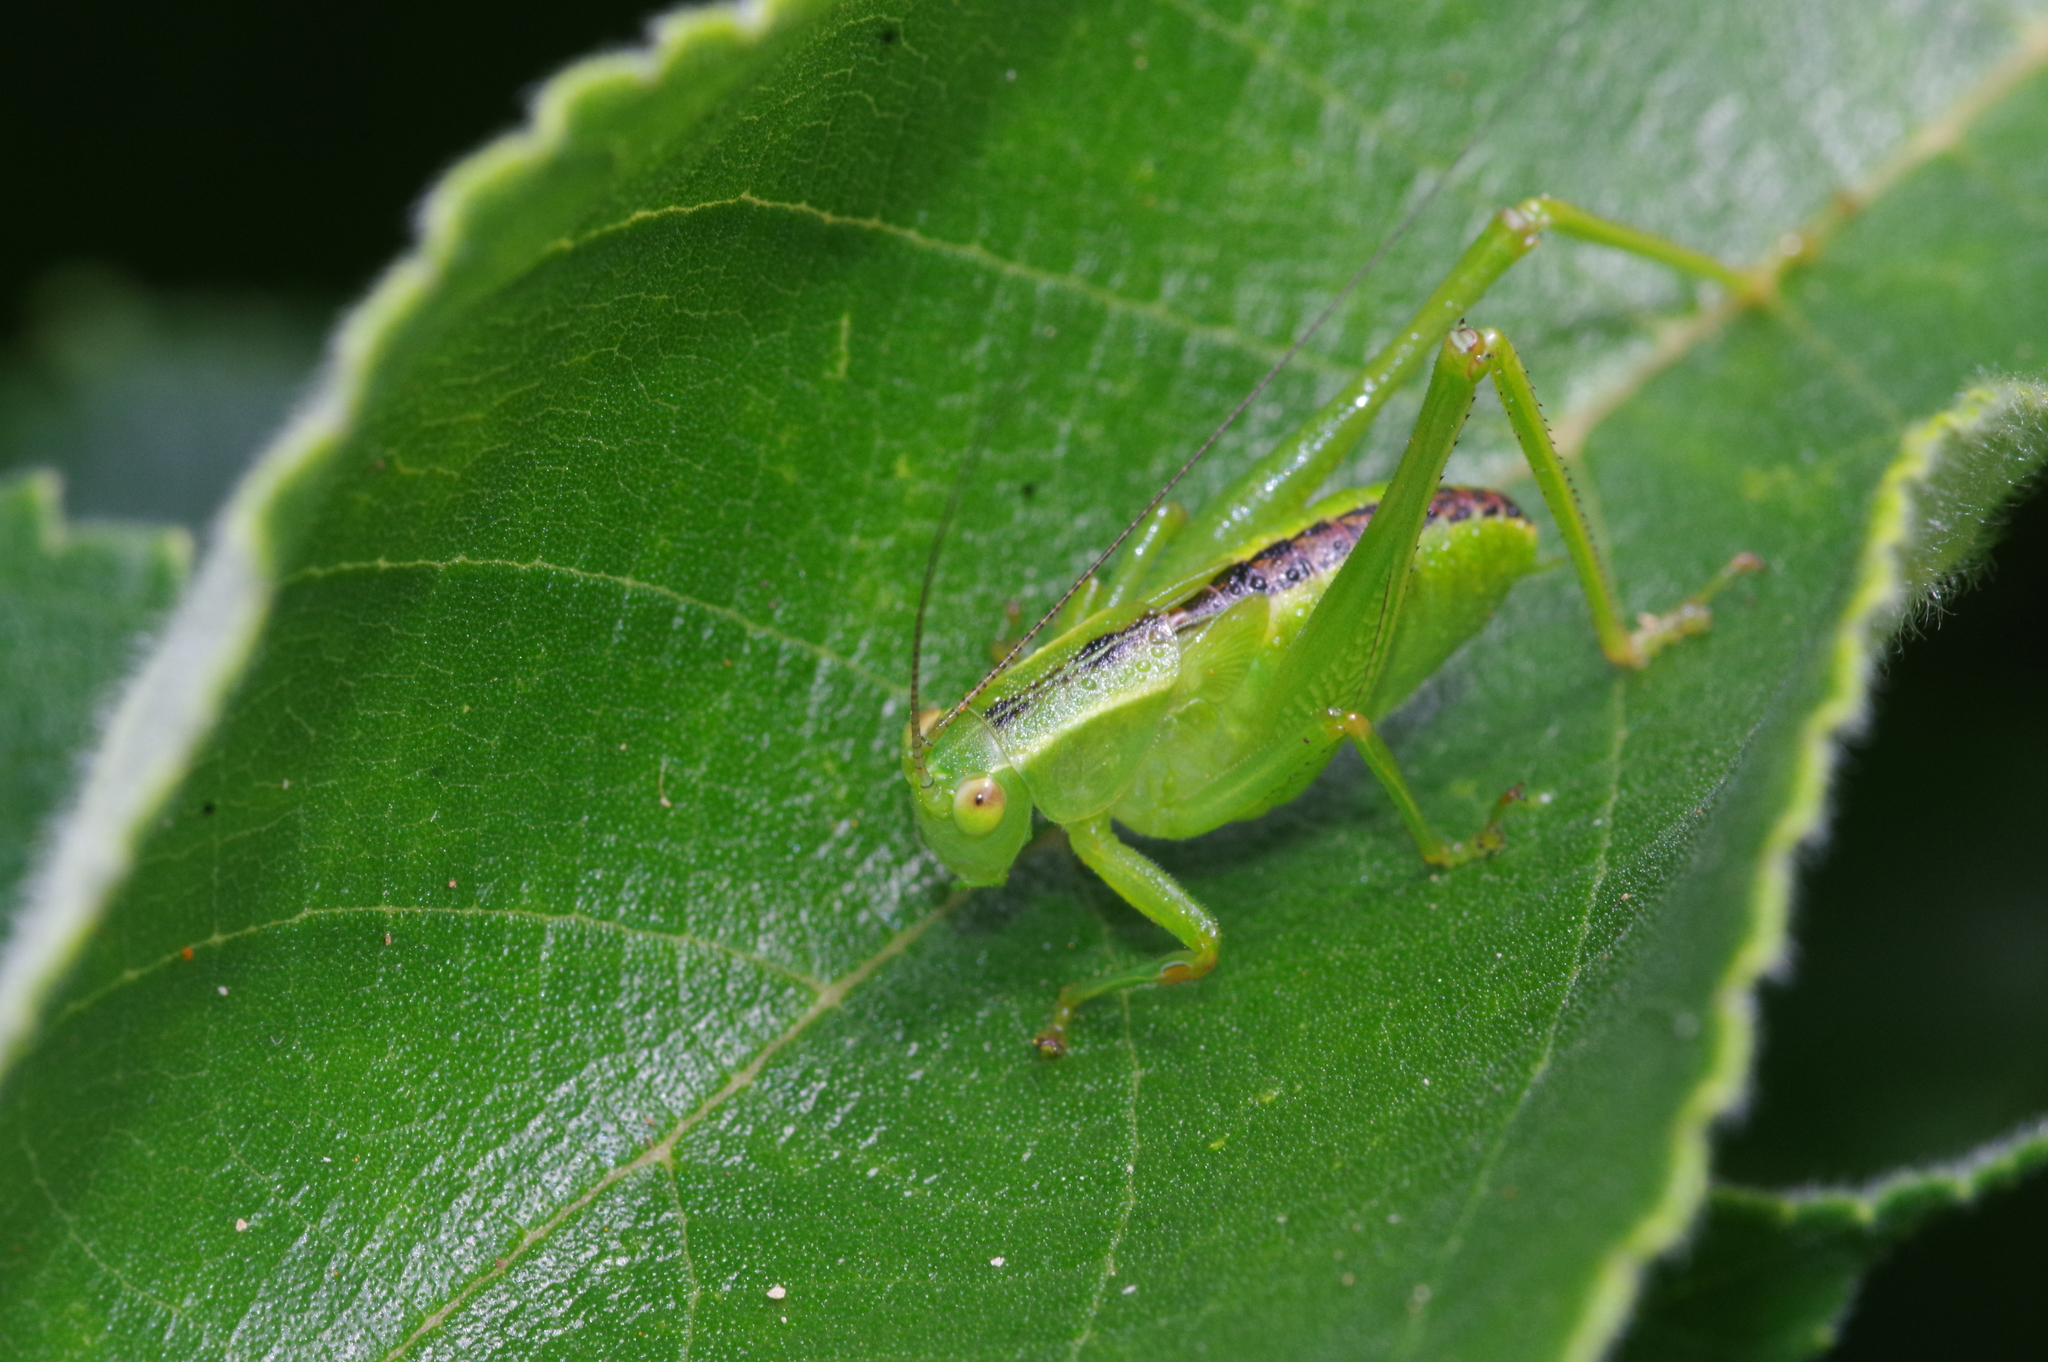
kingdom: Animalia
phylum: Arthropoda
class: Insecta
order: Orthoptera
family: Tettigoniidae
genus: Isopsera
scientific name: Isopsera denticulata
